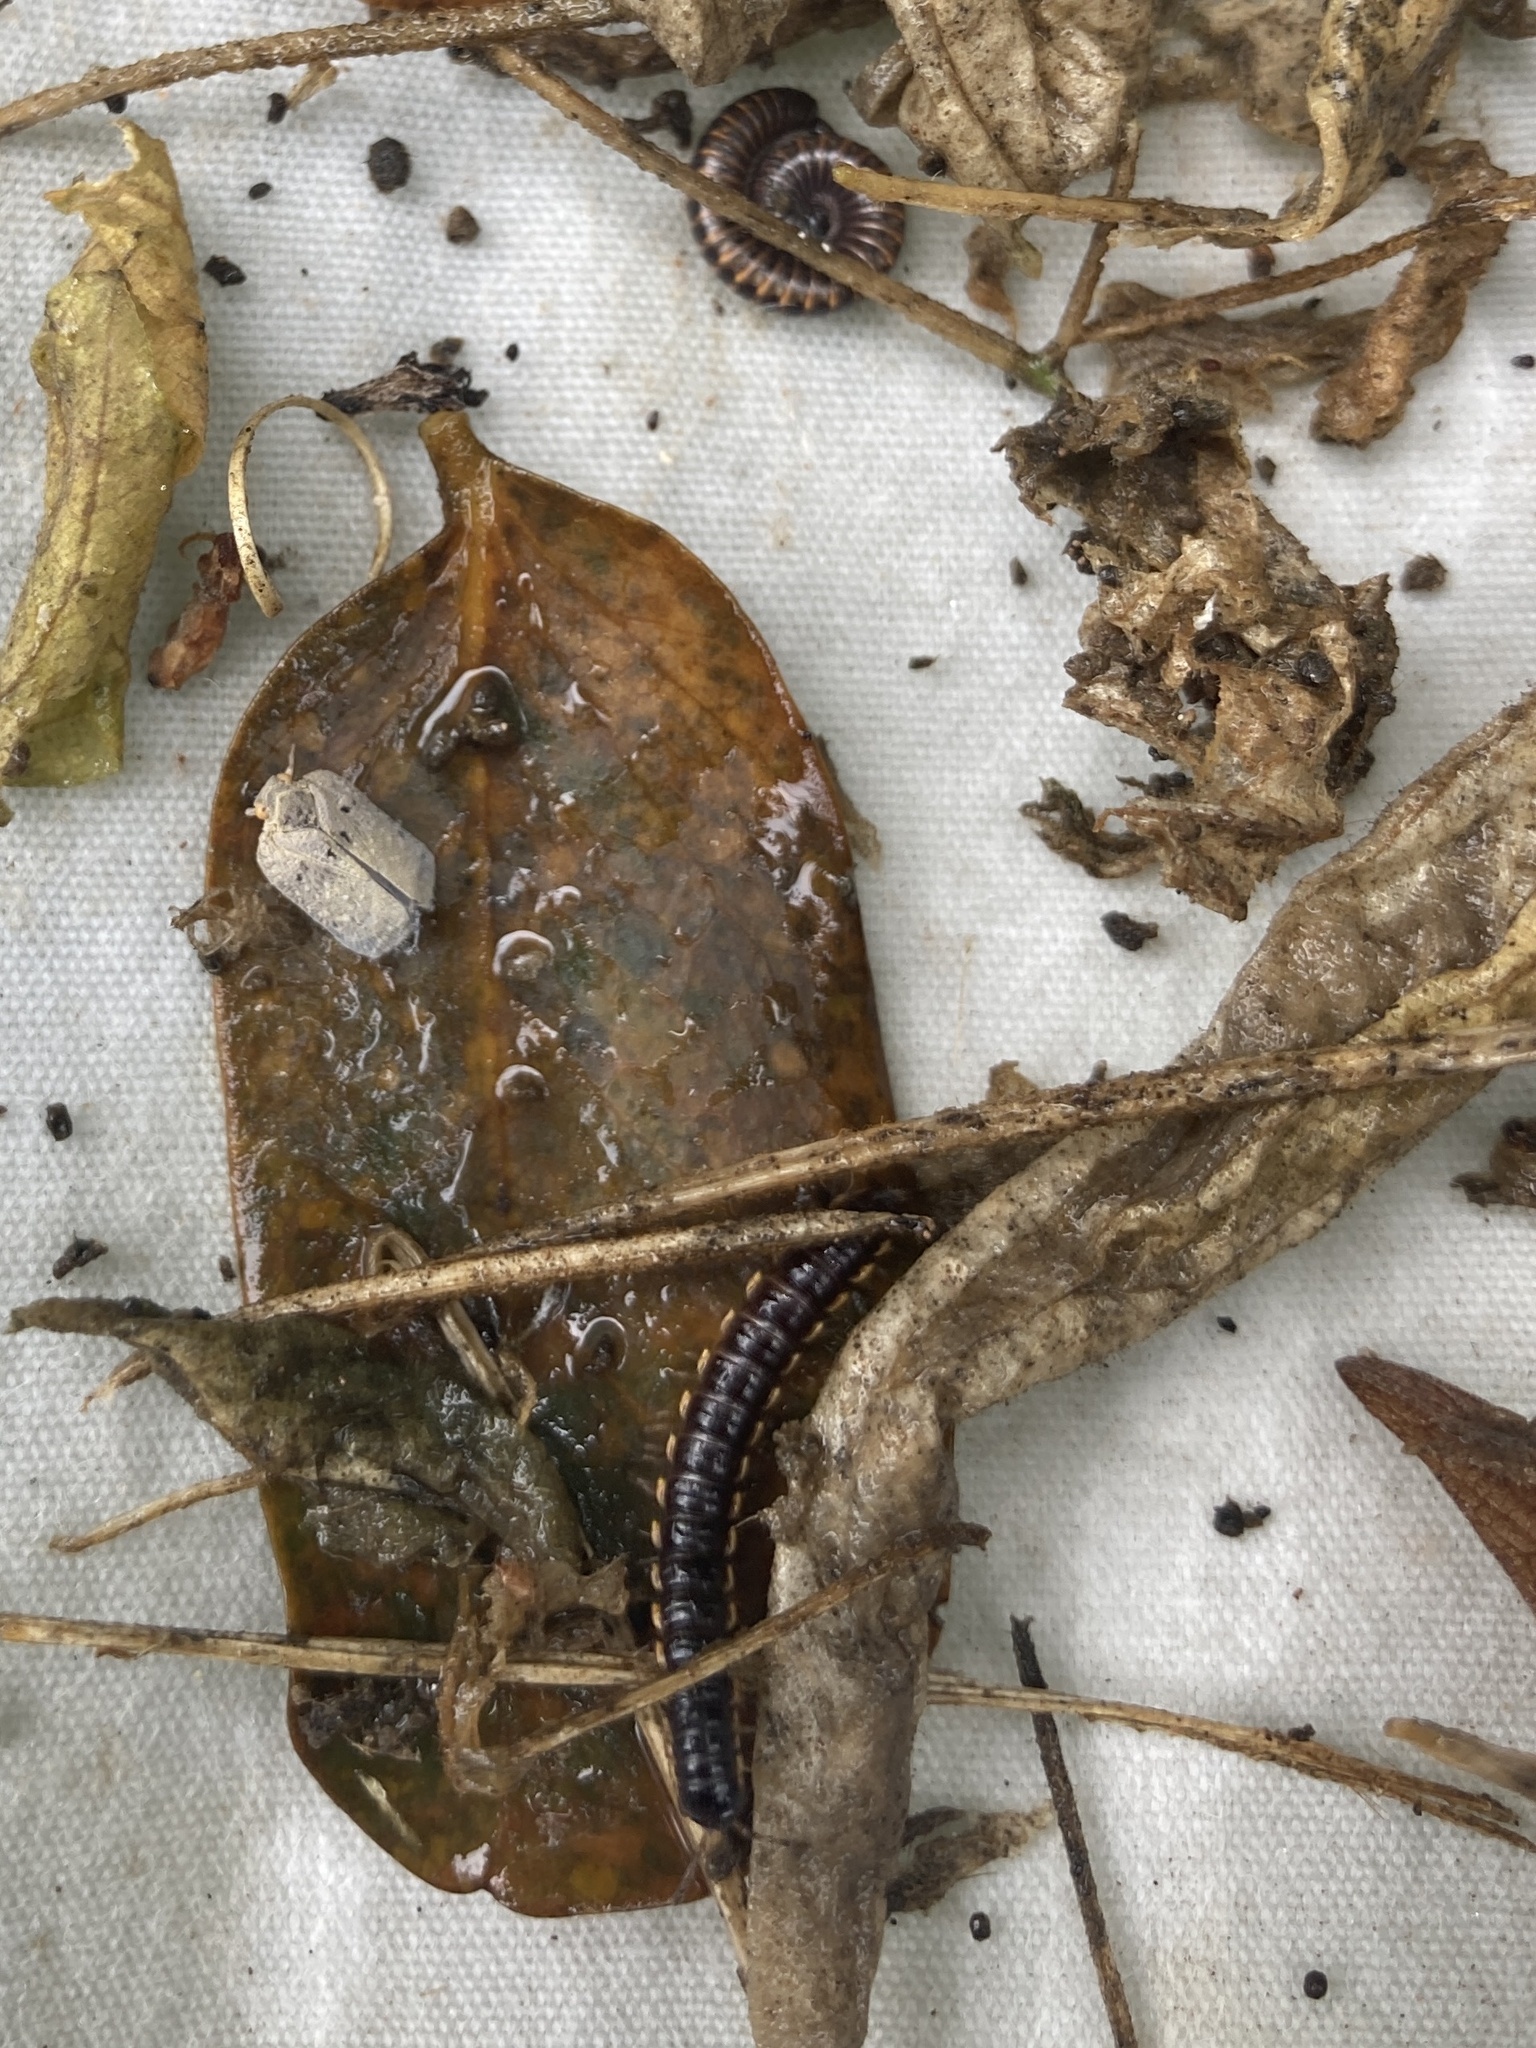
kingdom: Animalia
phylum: Arthropoda
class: Insecta
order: Hemiptera
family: Flatidae
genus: Melormenis
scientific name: Melormenis basalis
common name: Puerto rican planthopper
